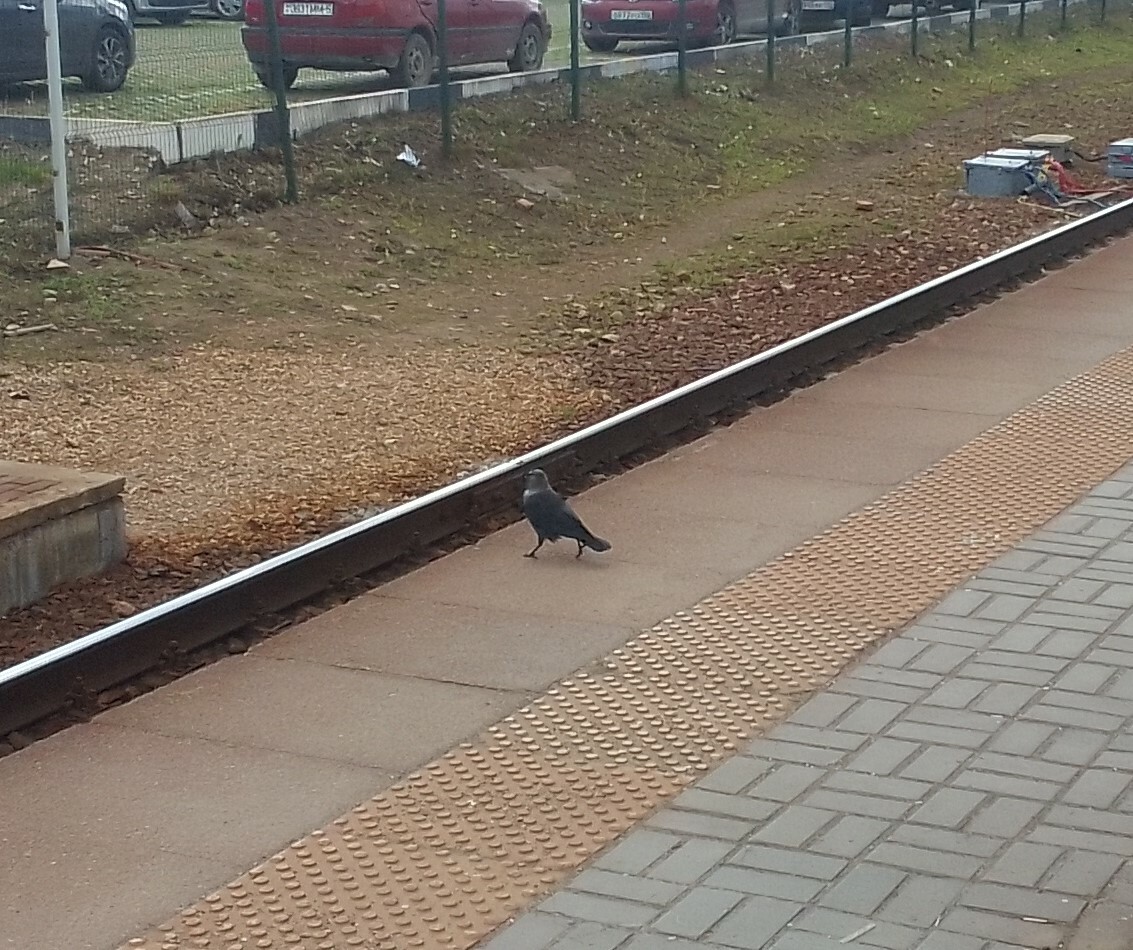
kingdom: Animalia
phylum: Chordata
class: Aves
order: Passeriformes
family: Corvidae
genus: Coloeus
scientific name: Coloeus monedula
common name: Western jackdaw
